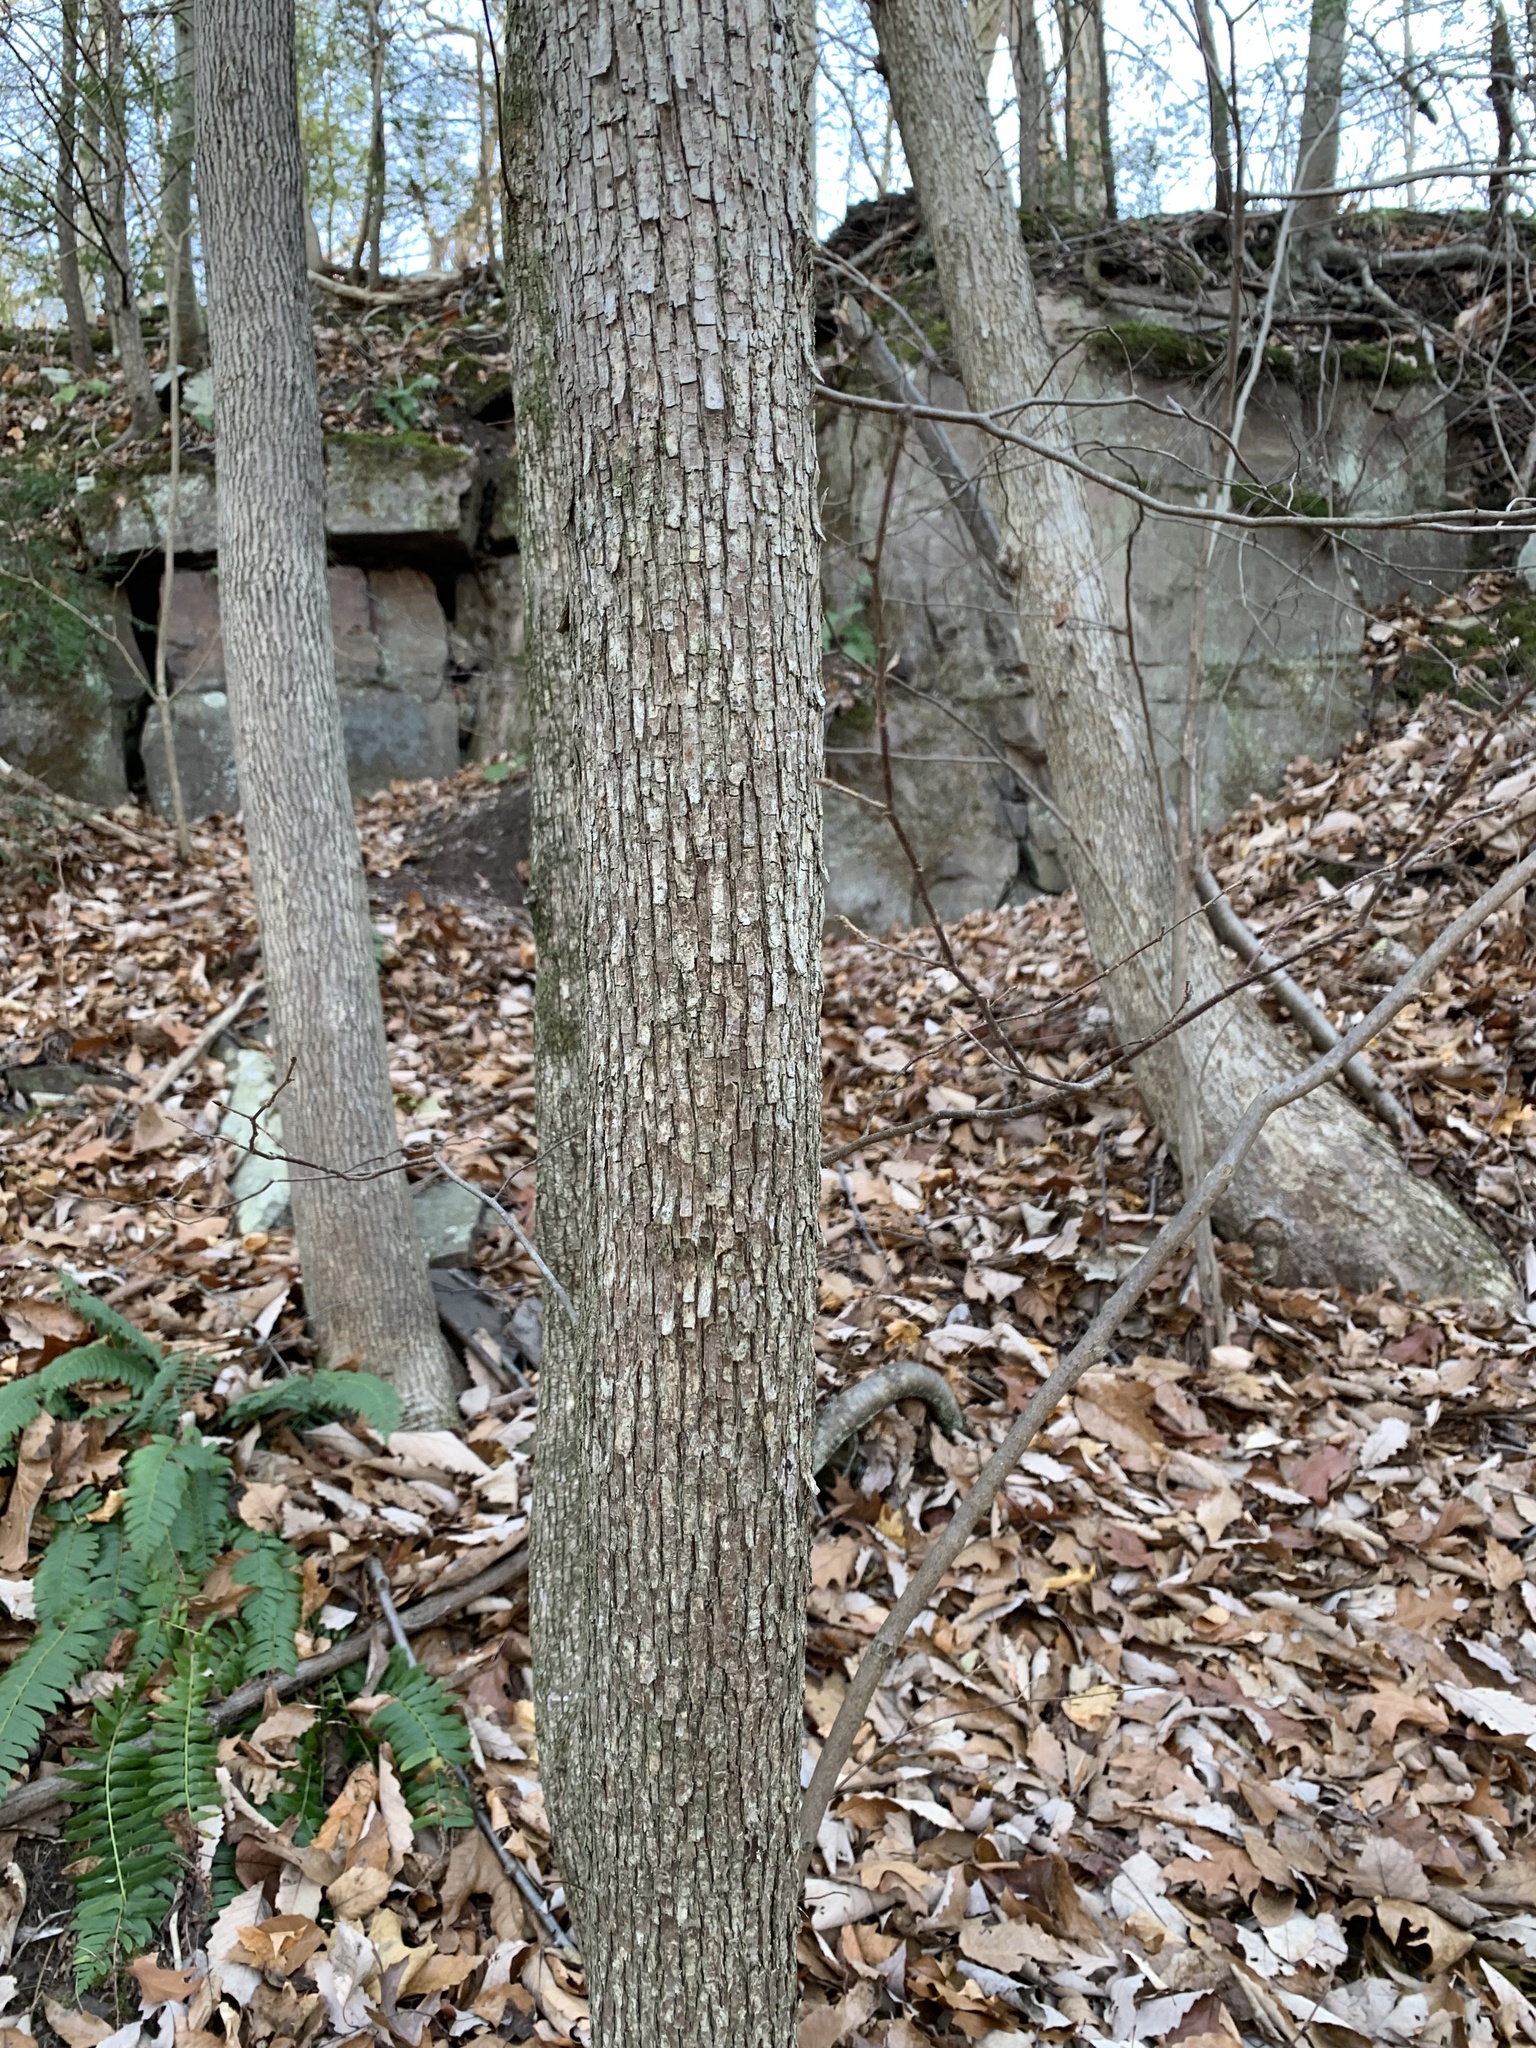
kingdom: Plantae
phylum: Tracheophyta
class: Magnoliopsida
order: Fagales
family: Betulaceae
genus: Ostrya
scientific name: Ostrya virginiana
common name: Ironwood
